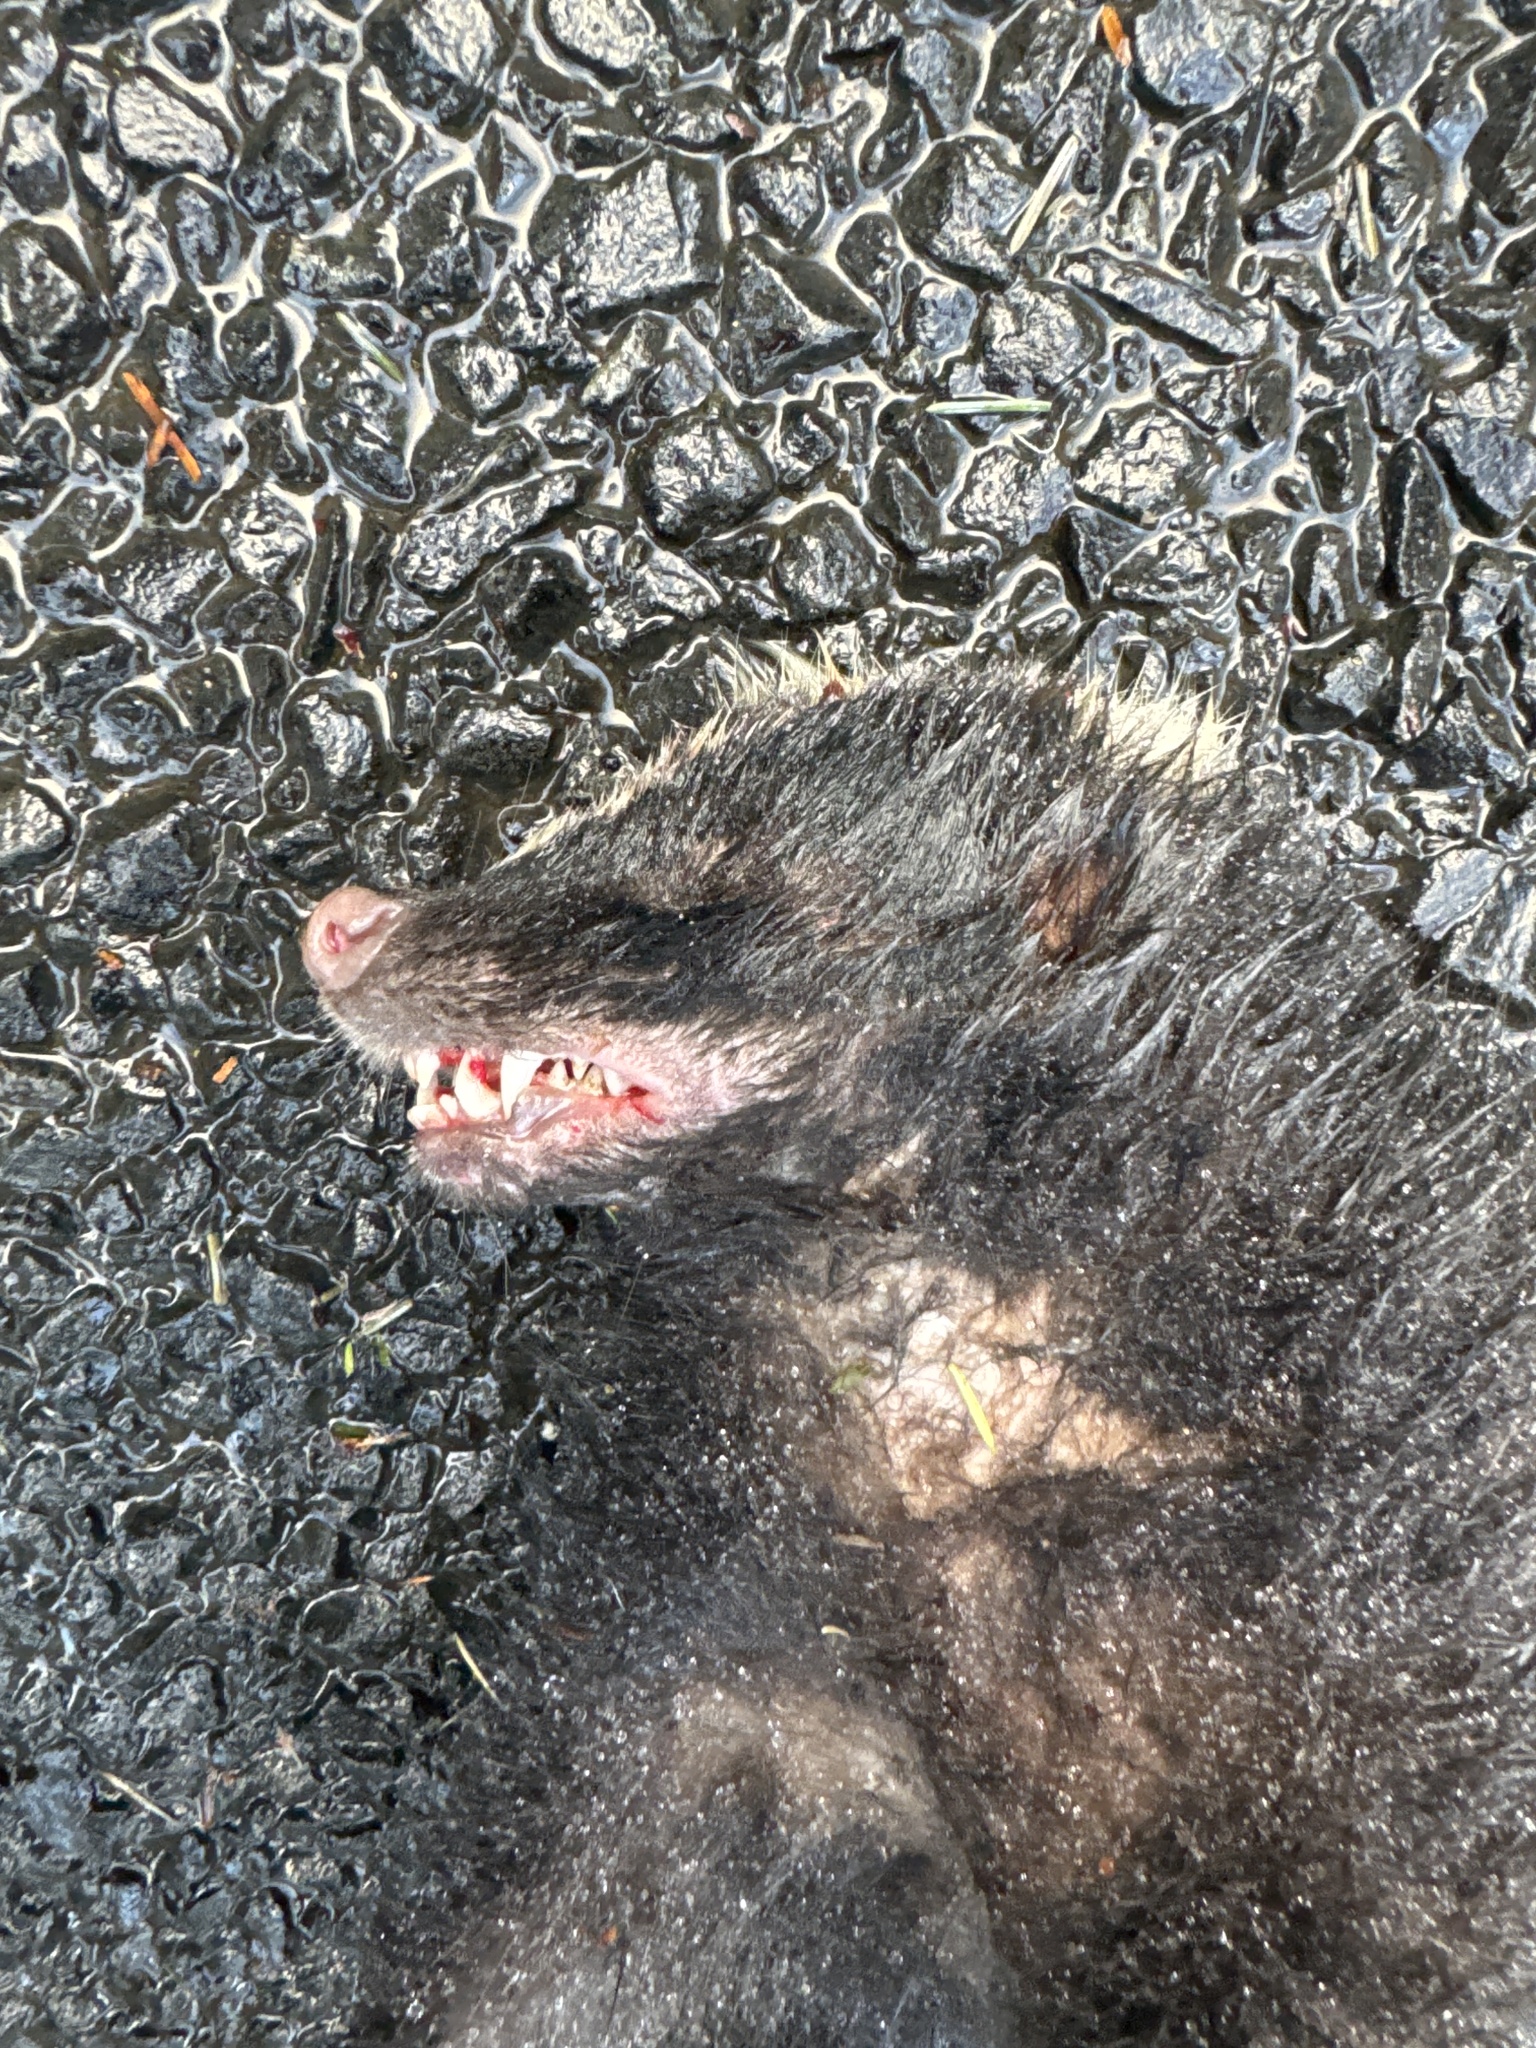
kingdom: Animalia
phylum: Chordata
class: Mammalia
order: Carnivora
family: Mephitidae
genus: Mephitis
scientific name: Mephitis mephitis
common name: Striped skunk
